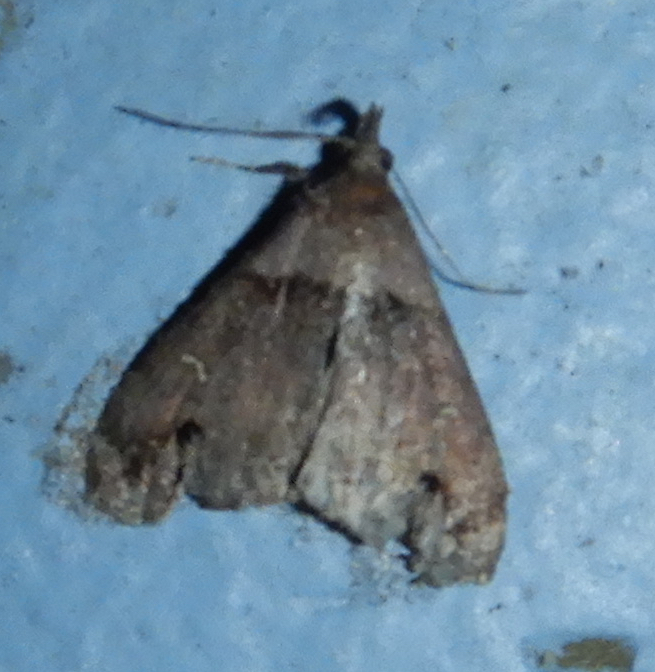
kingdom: Animalia
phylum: Arthropoda
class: Insecta
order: Lepidoptera
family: Erebidae
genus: Lascoria
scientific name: Lascoria ambigualis
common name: Ambiguous moth
